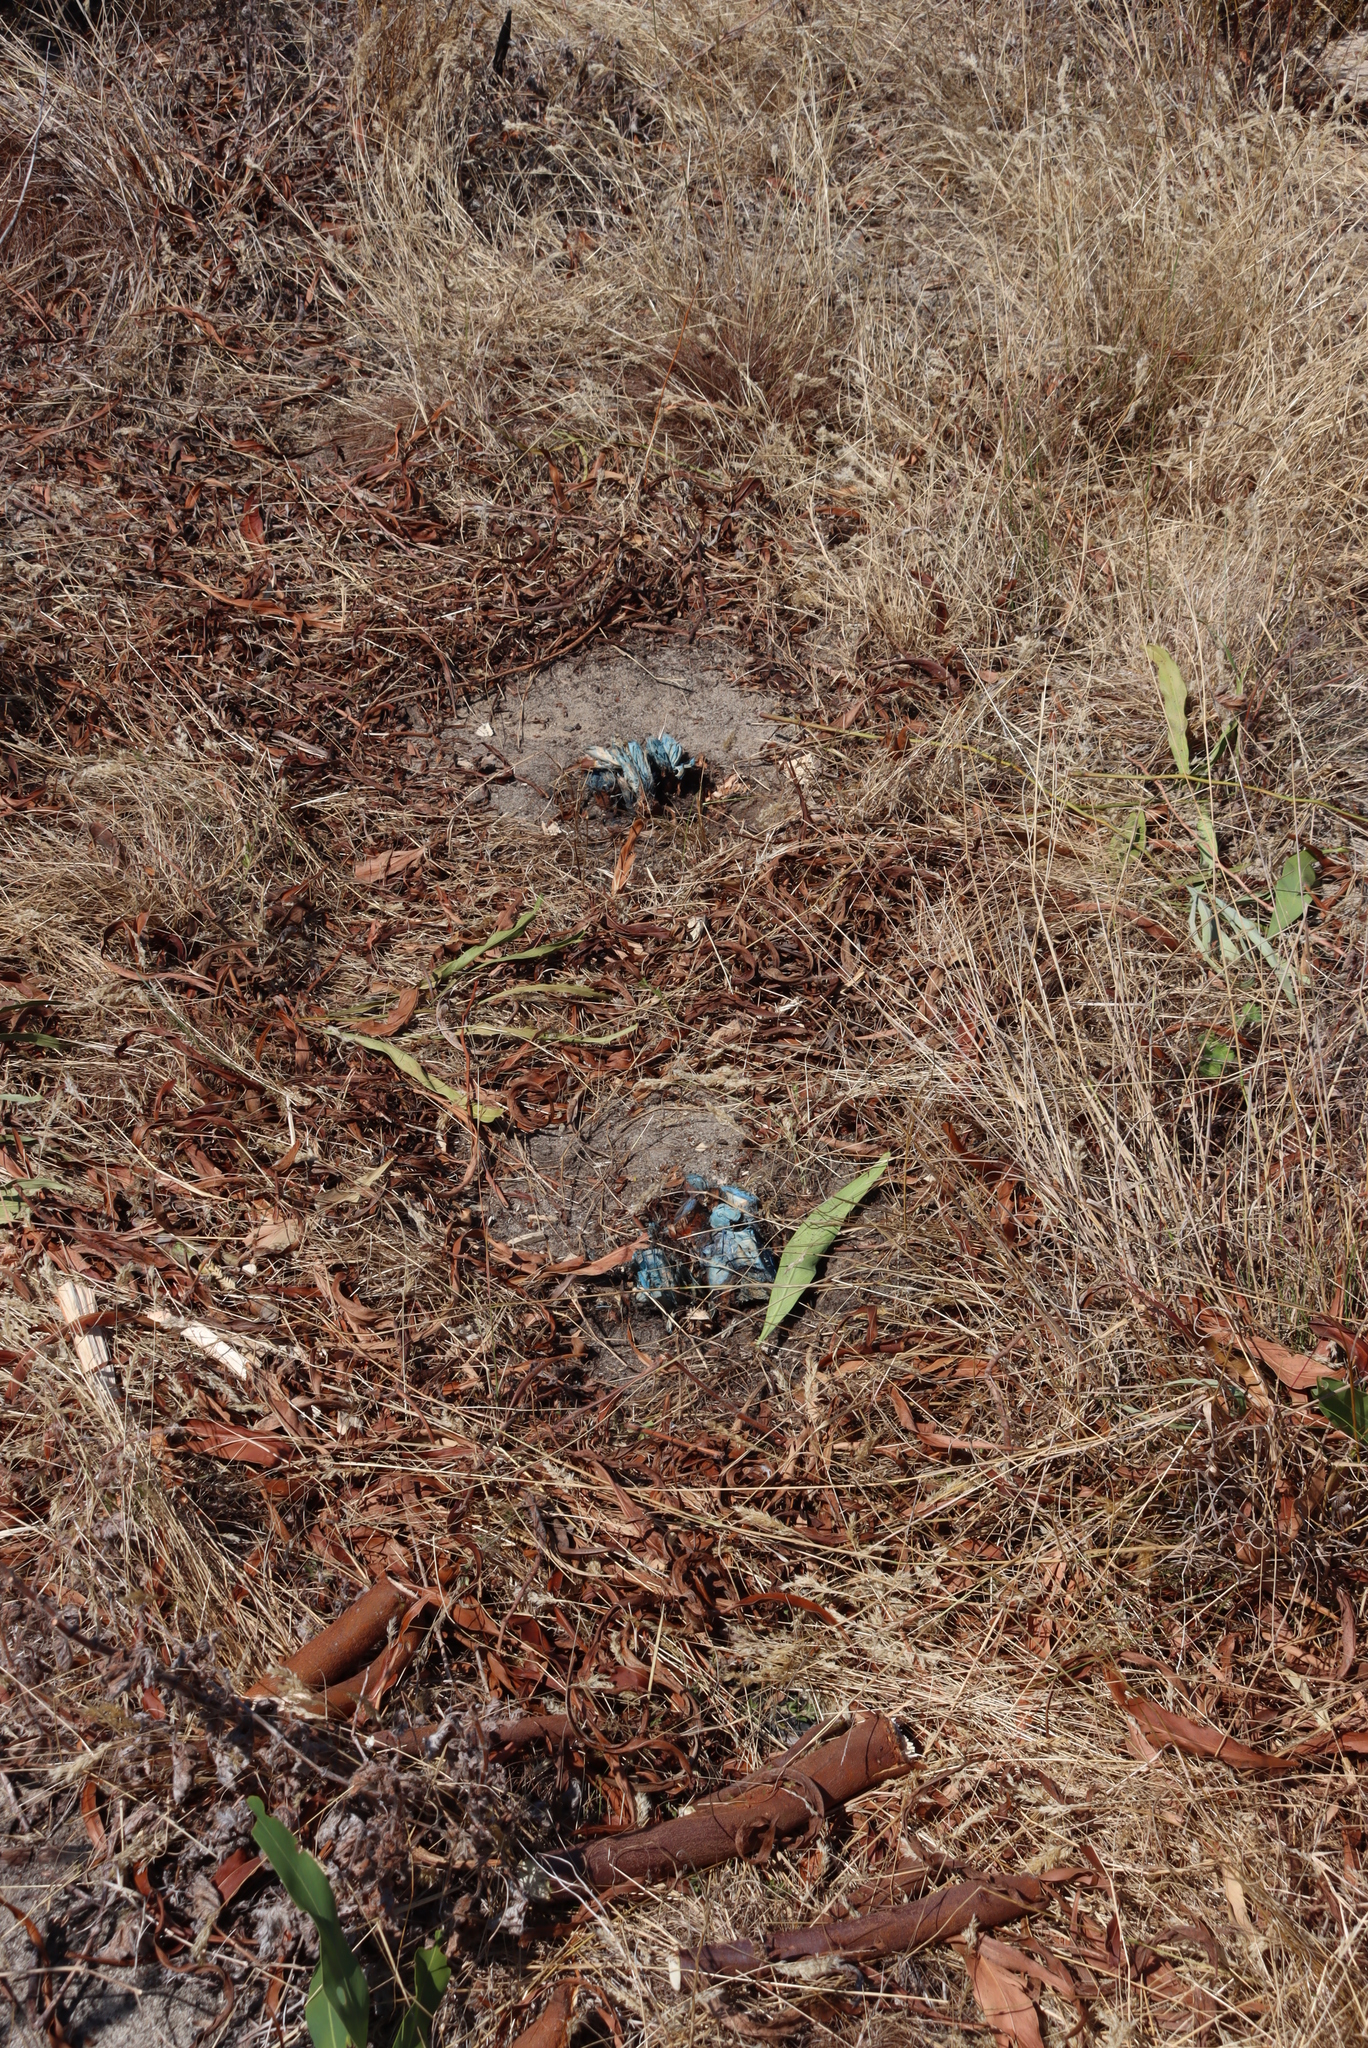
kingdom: Plantae
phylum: Tracheophyta
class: Magnoliopsida
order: Fabales
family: Fabaceae
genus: Acacia
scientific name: Acacia saligna
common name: Orange wattle
